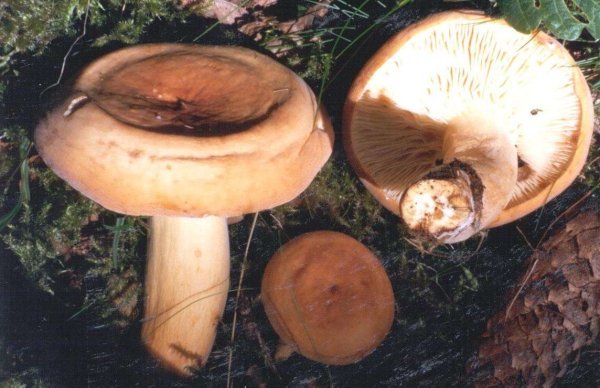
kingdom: Fungi
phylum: Basidiomycota
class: Agaricomycetes
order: Russulales
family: Russulaceae
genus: Lactifluus
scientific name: Lactifluus volemus
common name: Fishy milkcap
